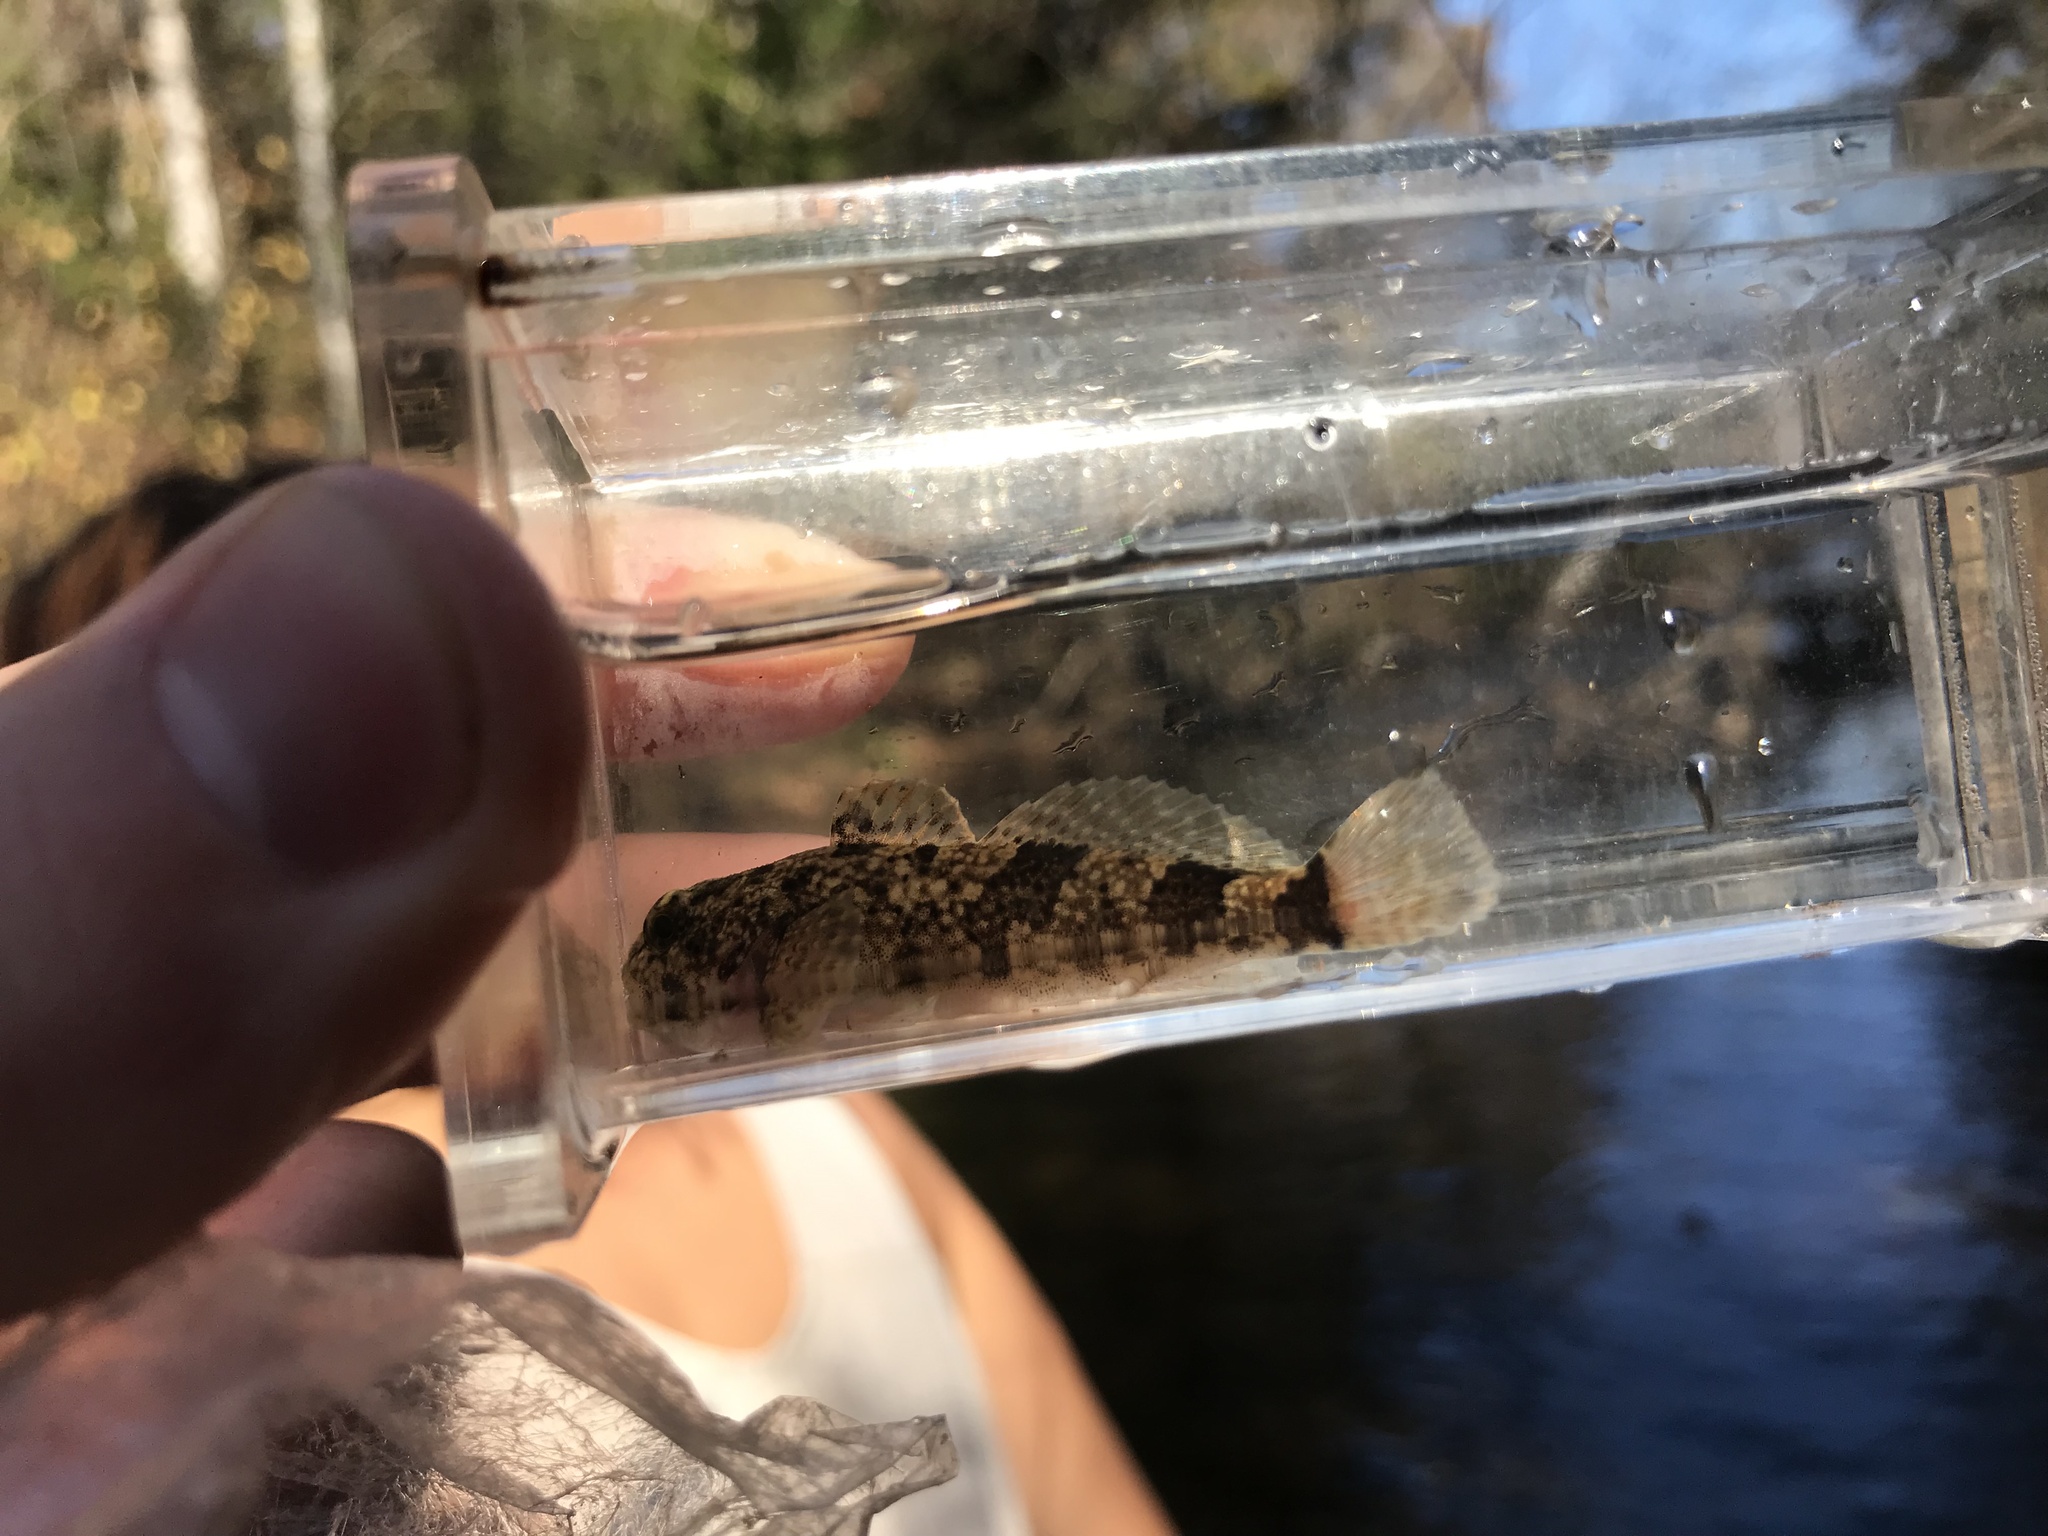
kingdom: Animalia
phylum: Chordata
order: Scorpaeniformes
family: Cottidae
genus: Cottus
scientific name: Cottus bairdii
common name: Mottled sculpin
